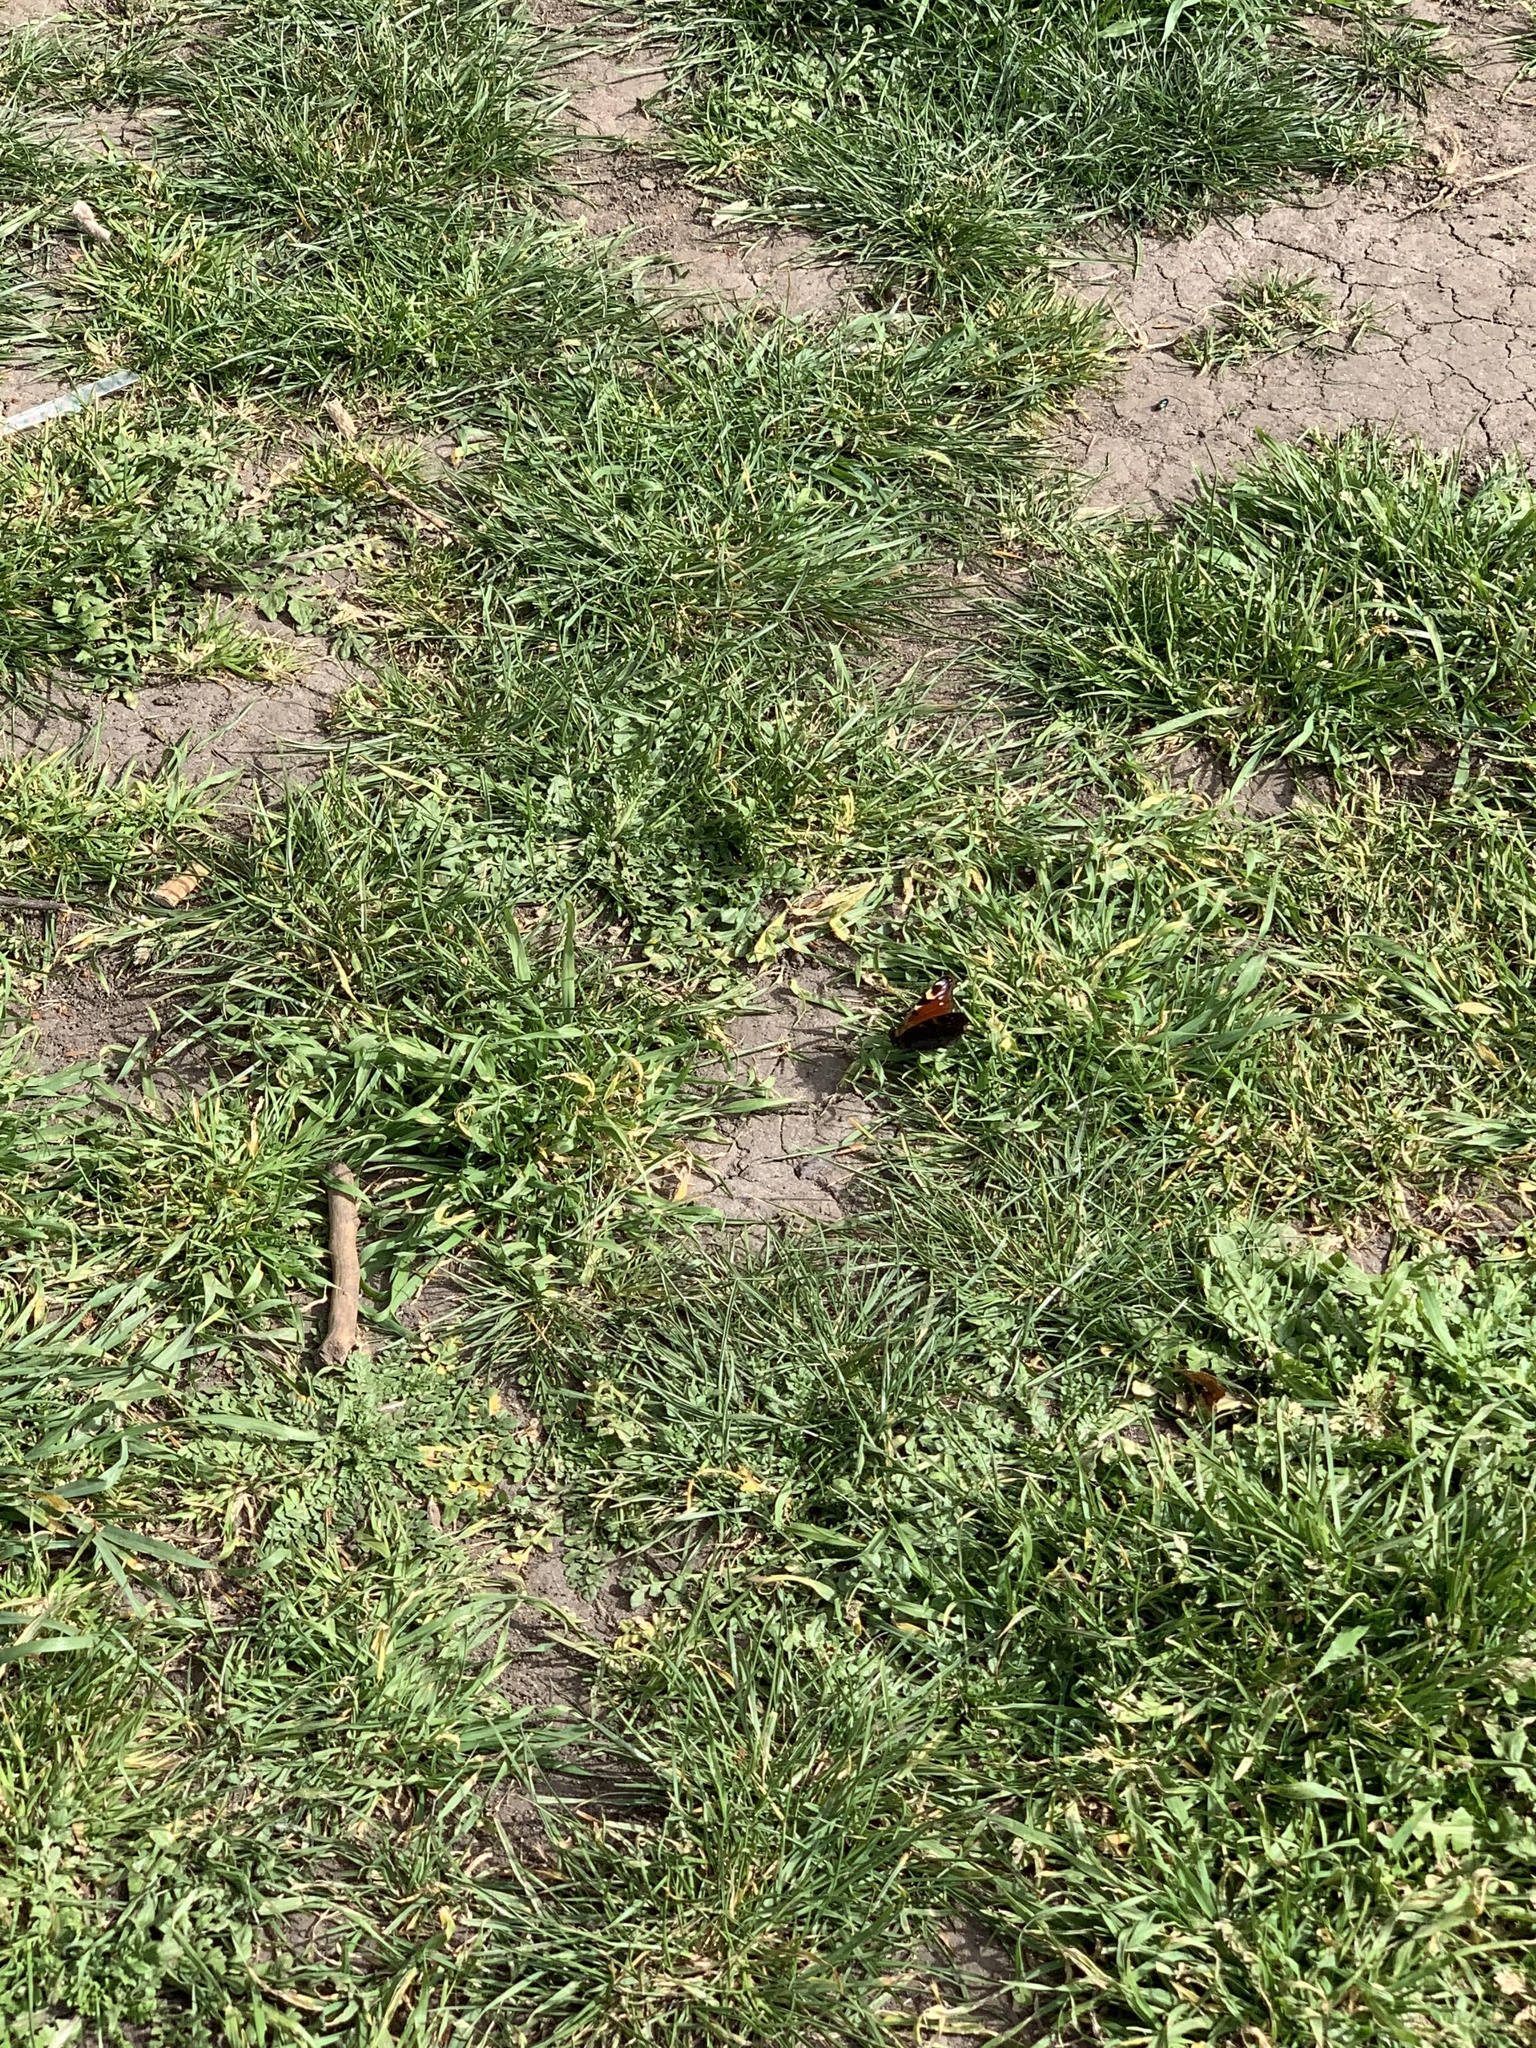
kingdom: Animalia
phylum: Arthropoda
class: Insecta
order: Lepidoptera
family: Nymphalidae
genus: Aglais
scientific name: Aglais io
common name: Peacock
